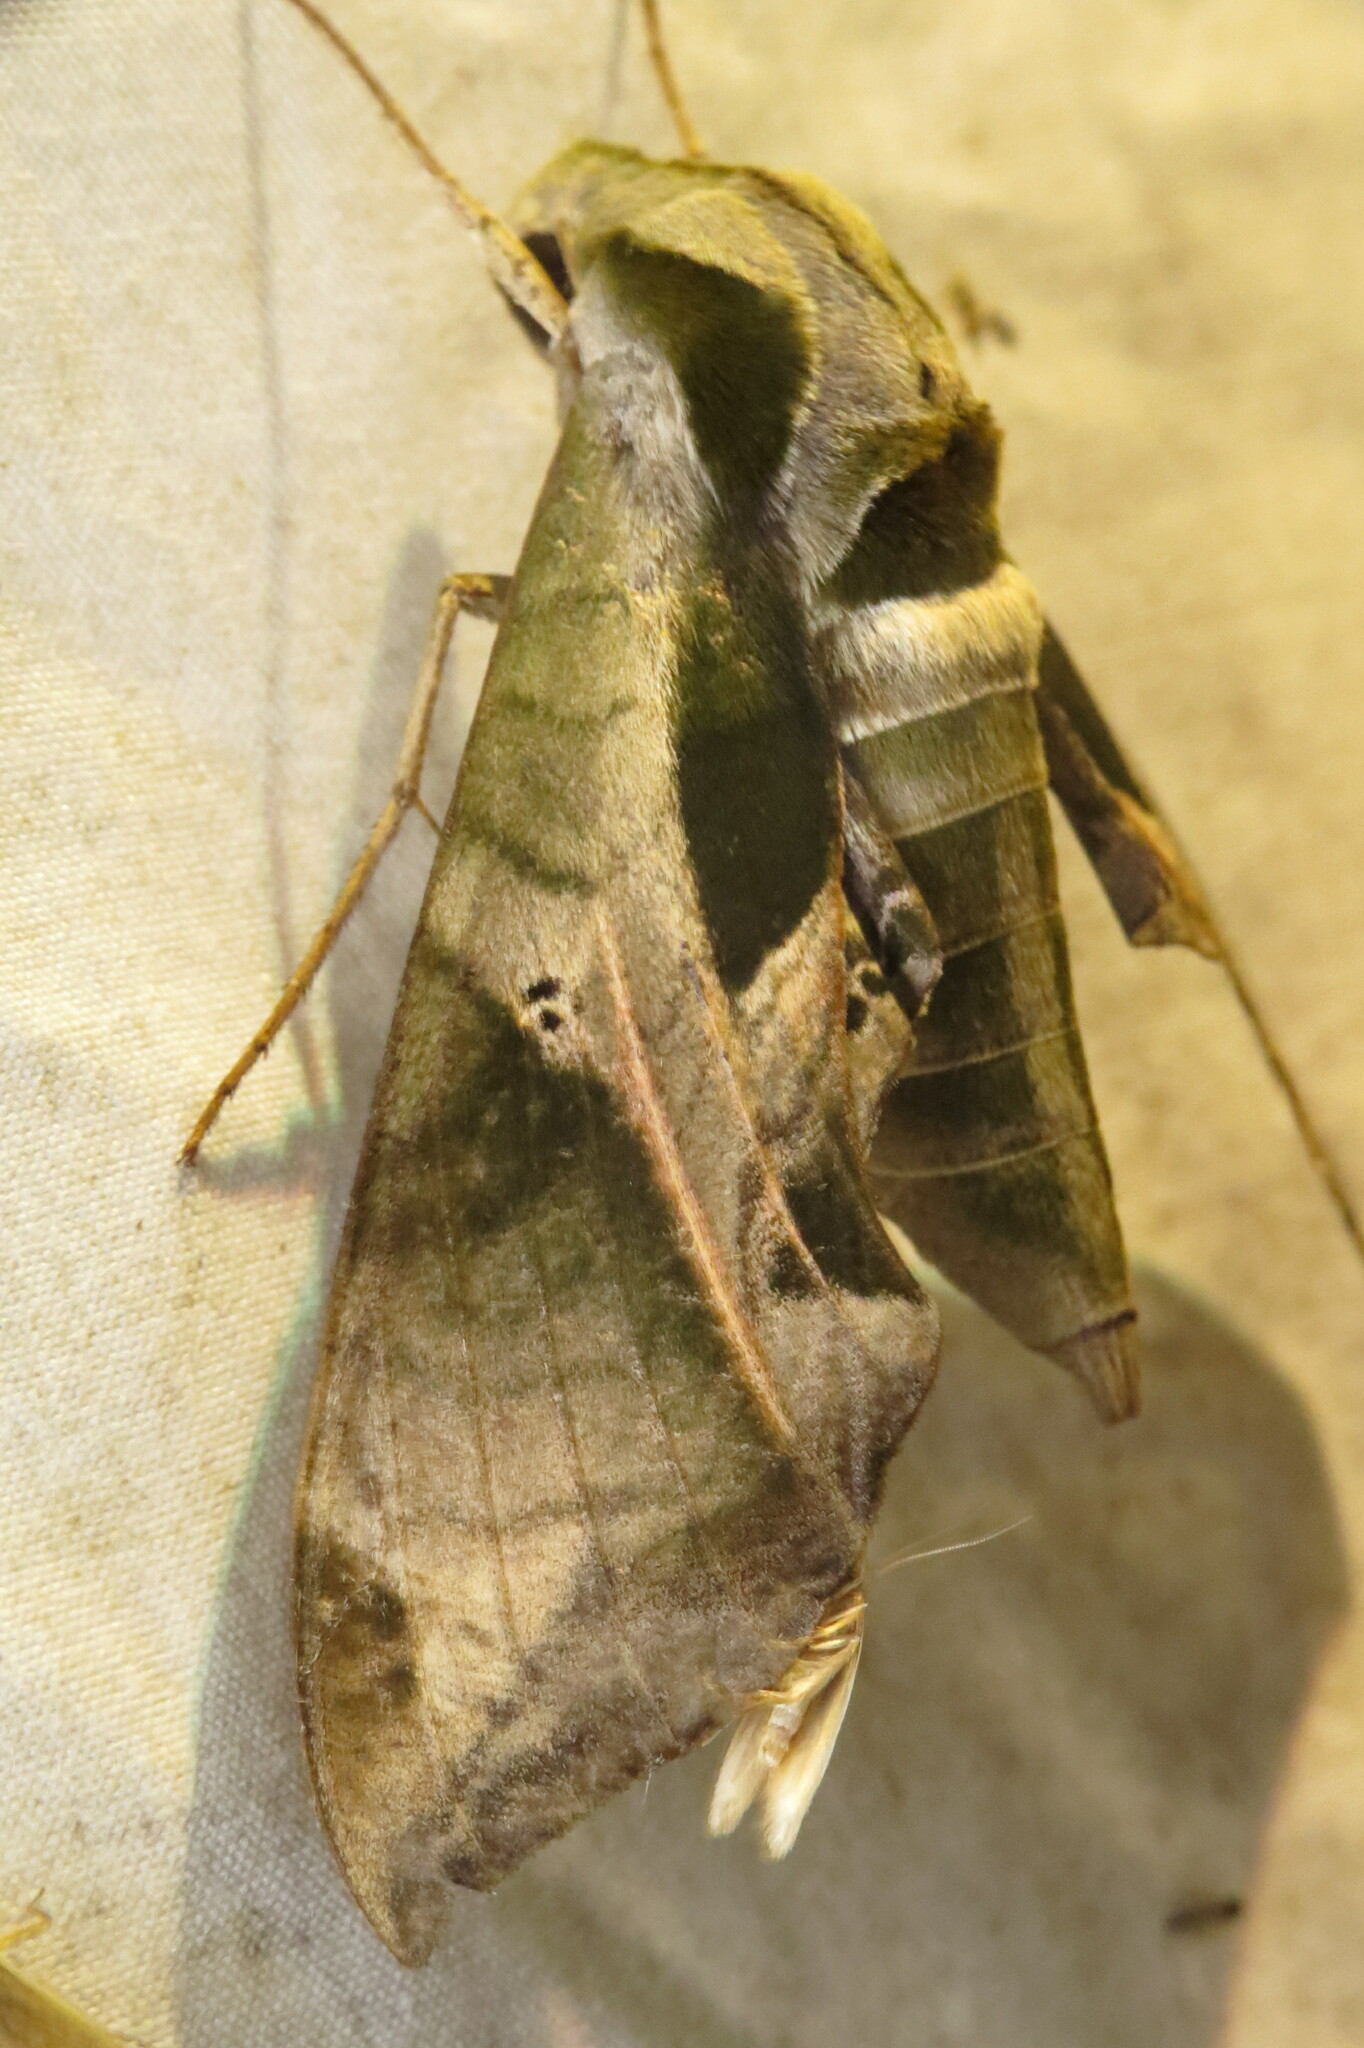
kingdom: Animalia
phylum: Arthropoda
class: Insecta
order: Lepidoptera
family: Sphingidae
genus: Eumorpha
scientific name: Eumorpha pandorus
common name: Pandora sphinx
